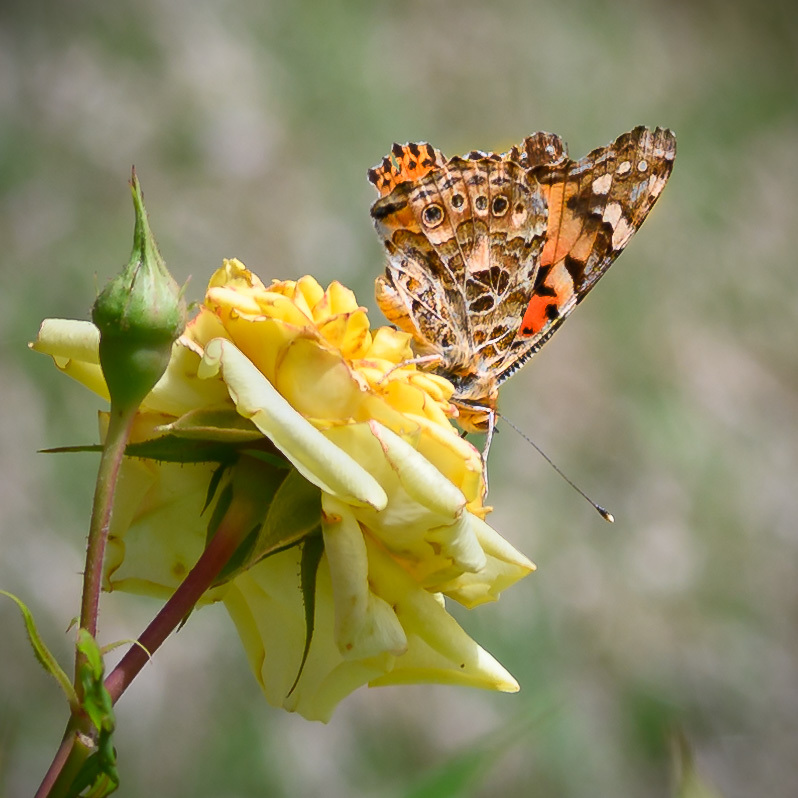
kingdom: Animalia
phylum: Arthropoda
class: Insecta
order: Lepidoptera
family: Nymphalidae
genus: Vanessa
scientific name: Vanessa cardui
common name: Painted lady
